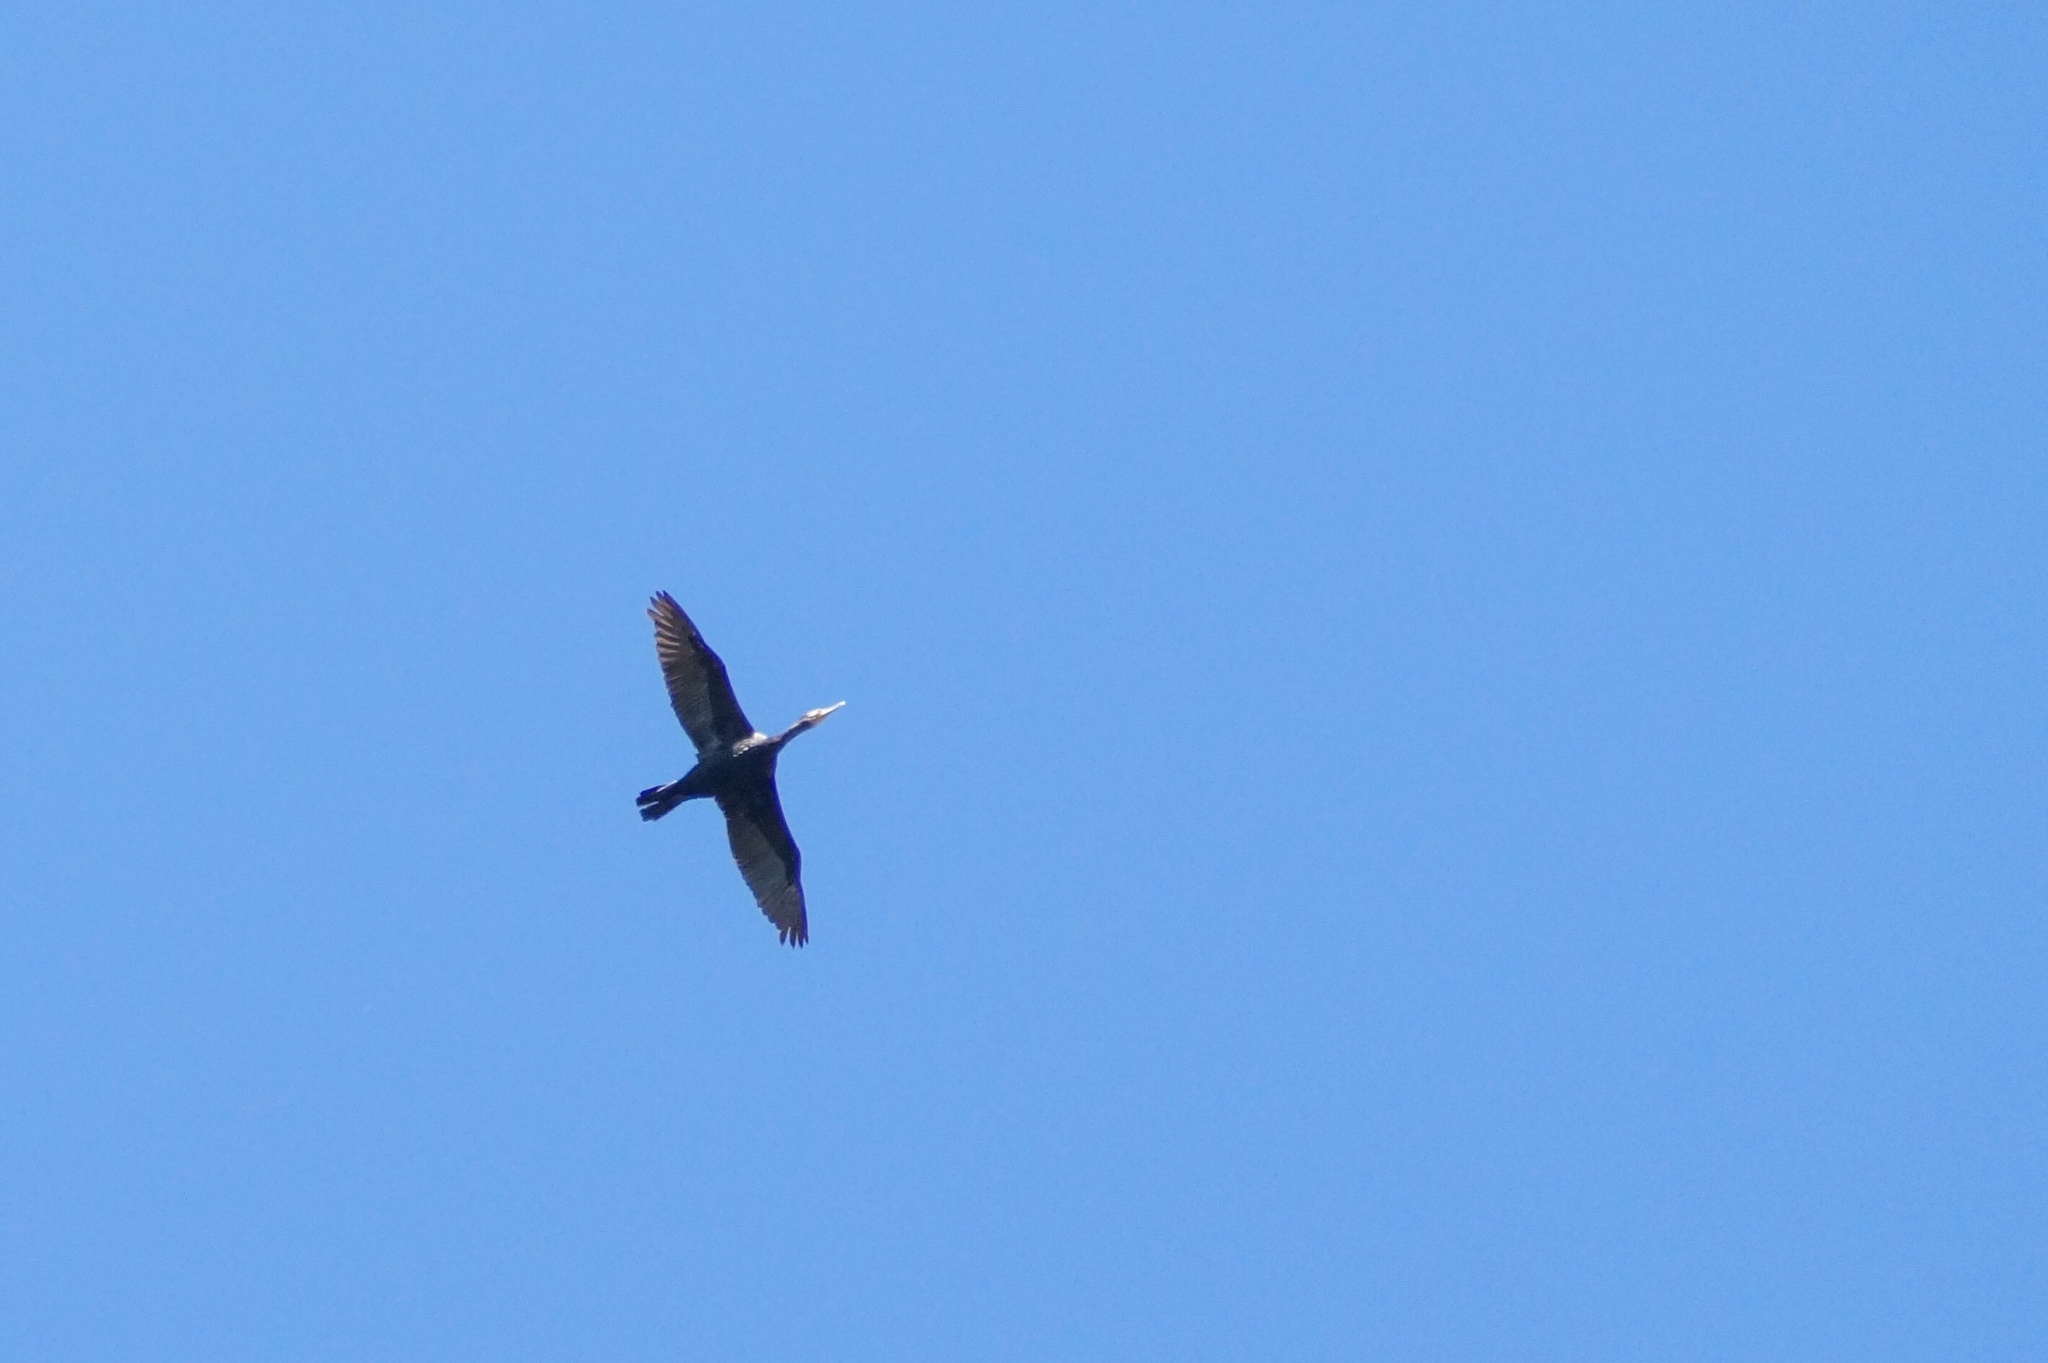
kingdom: Animalia
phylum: Chordata
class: Aves
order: Suliformes
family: Phalacrocoracidae
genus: Phalacrocorax
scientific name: Phalacrocorax carbo
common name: Great cormorant
